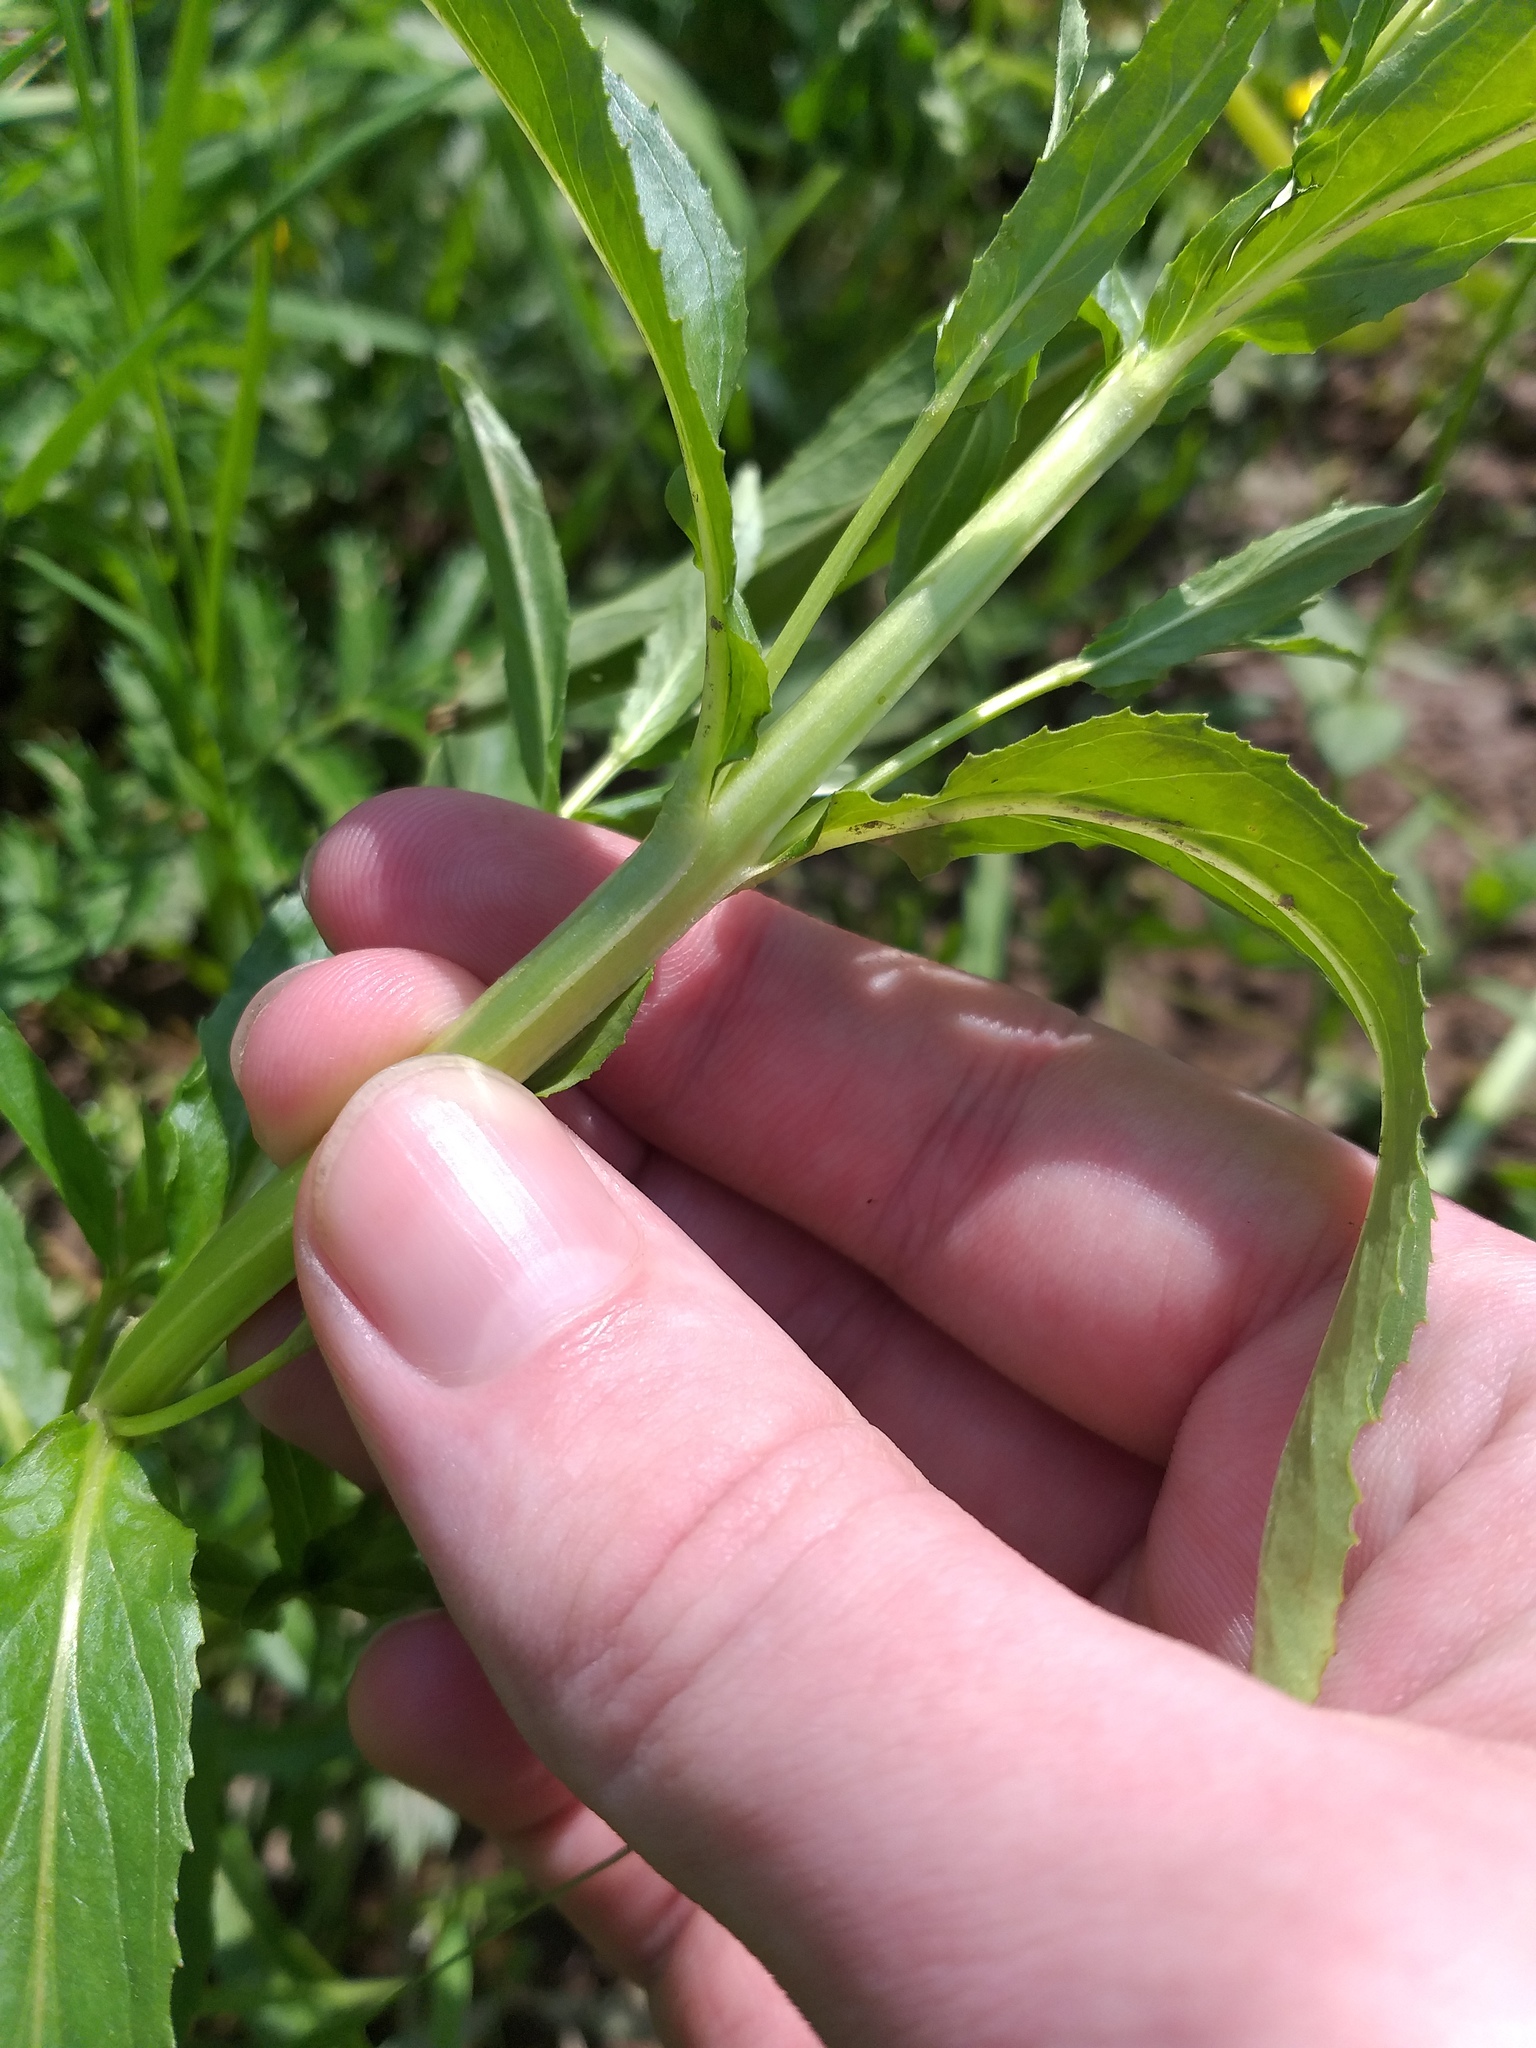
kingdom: Plantae
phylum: Tracheophyta
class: Magnoliopsida
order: Myrtales
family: Onagraceae
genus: Epilobium
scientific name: Epilobium lamyi
